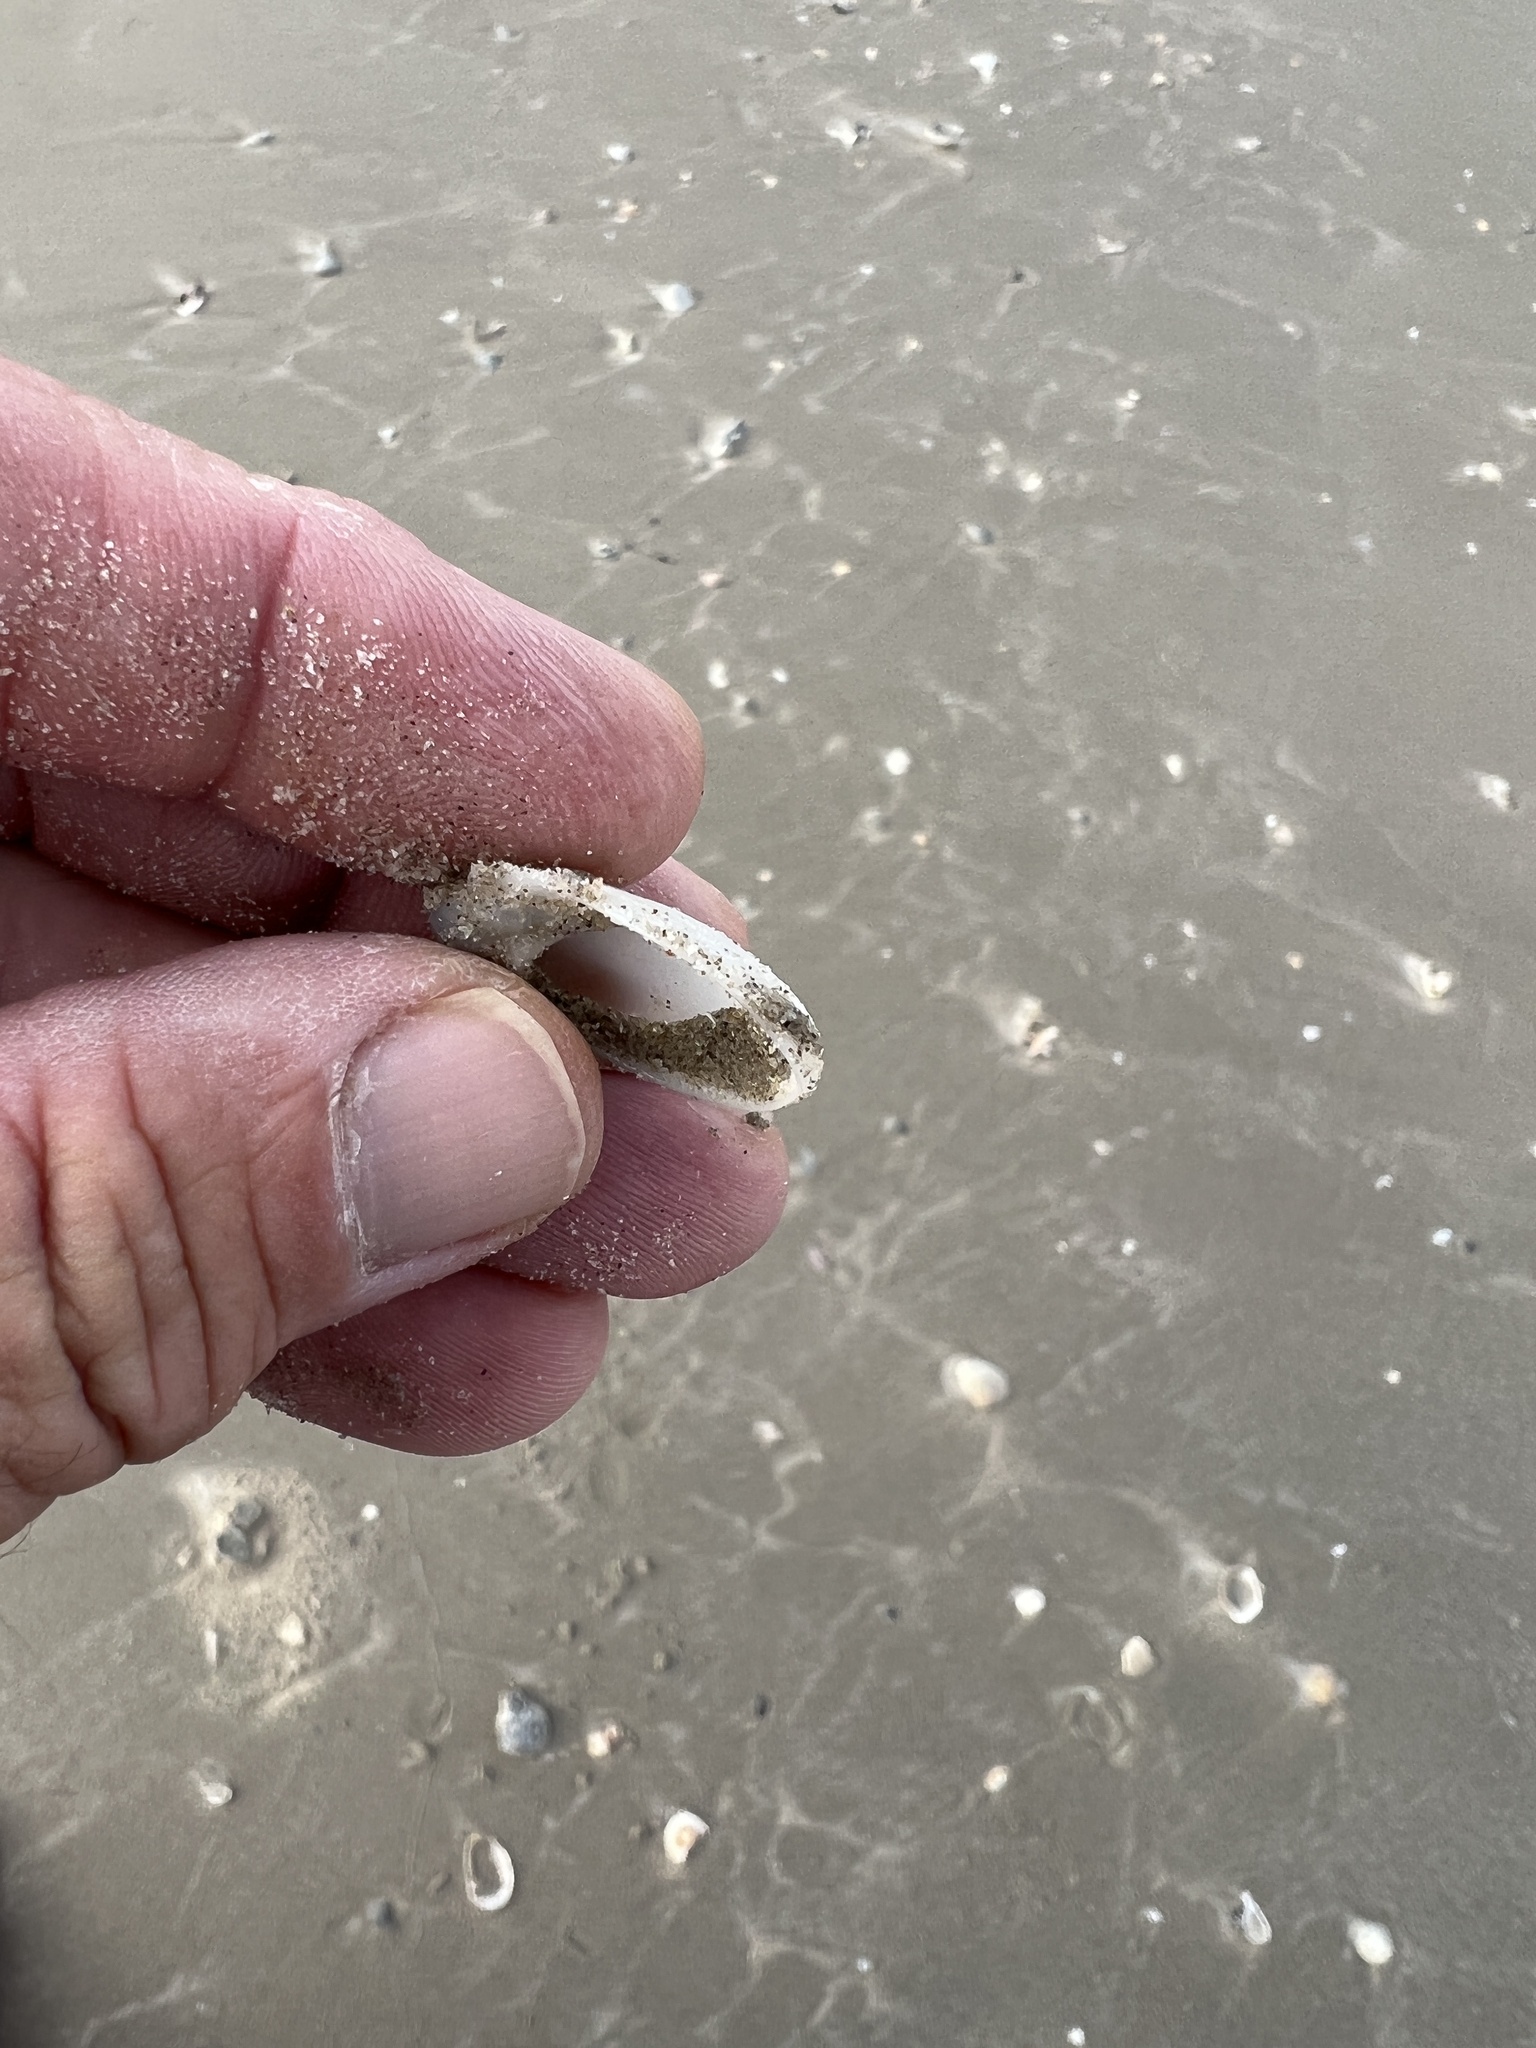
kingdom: Animalia
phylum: Mollusca
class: Gastropoda
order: Littorinimorpha
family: Naticidae
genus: Sinum
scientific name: Sinum perspectivum
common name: White baby ear
